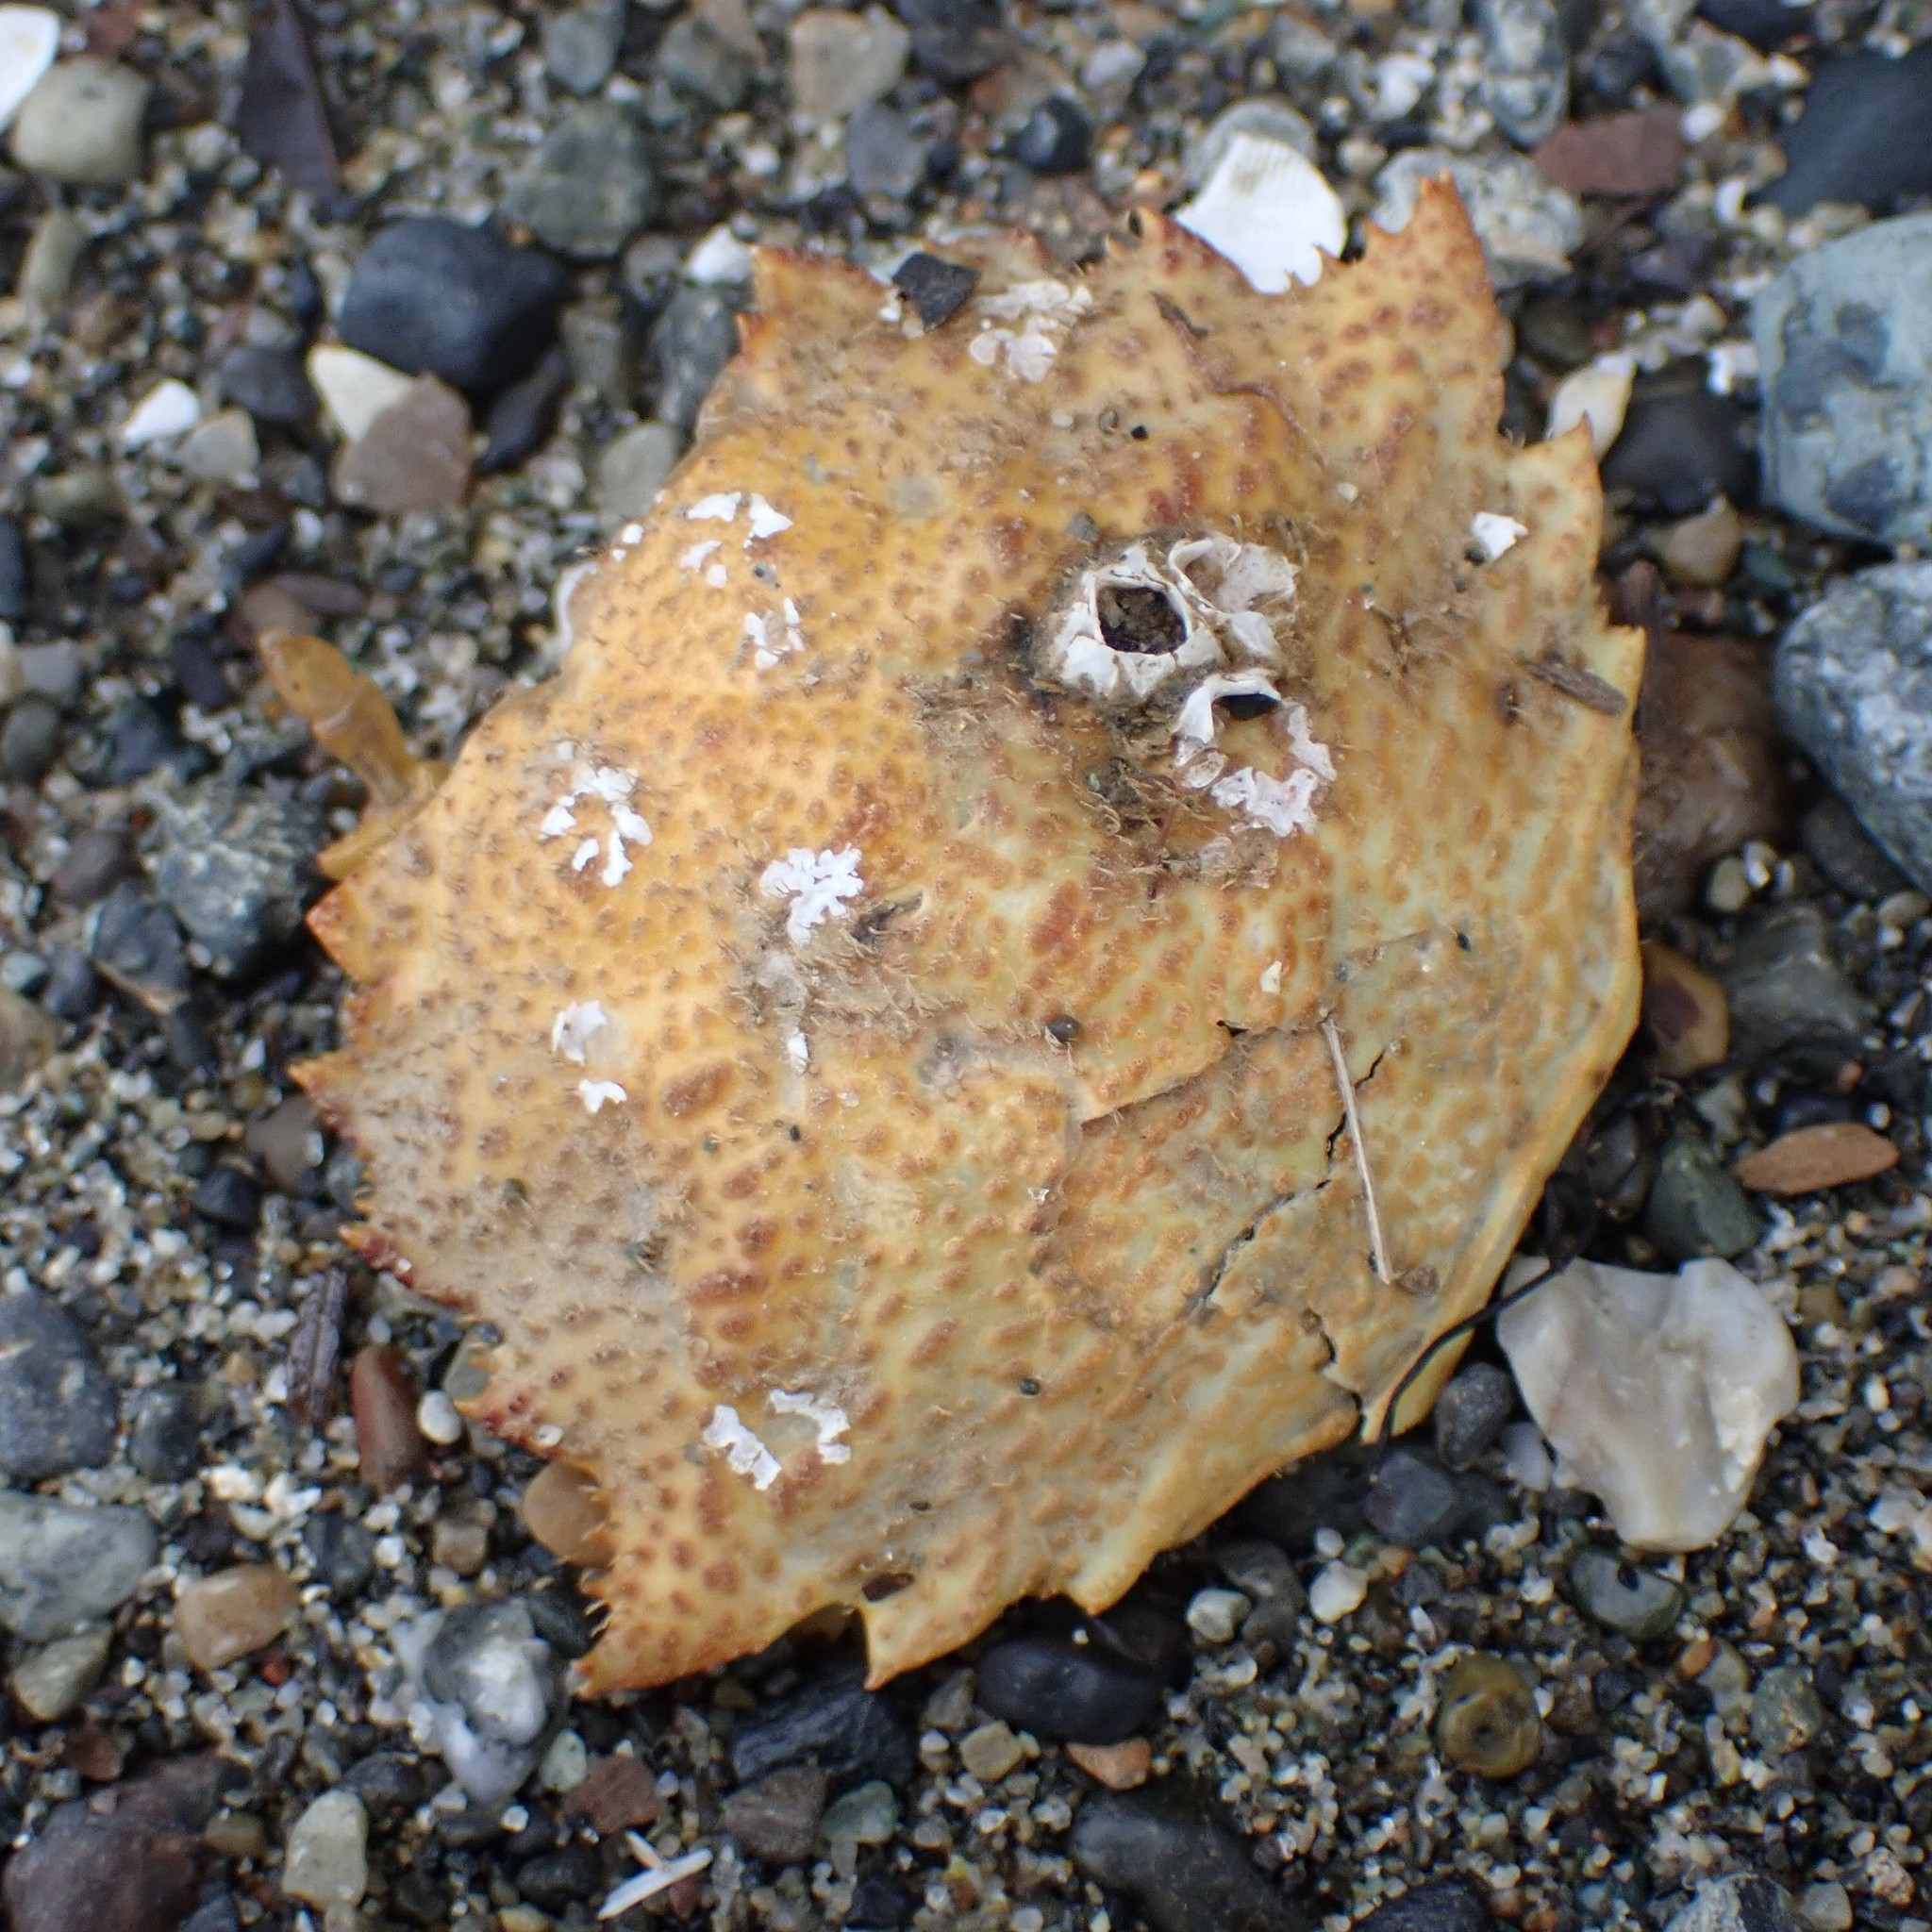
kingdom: Animalia
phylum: Arthropoda
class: Malacostraca
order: Decapoda
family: Cheiragonidae
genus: Telmessus
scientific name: Telmessus cheiragonus
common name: Helmet crab
